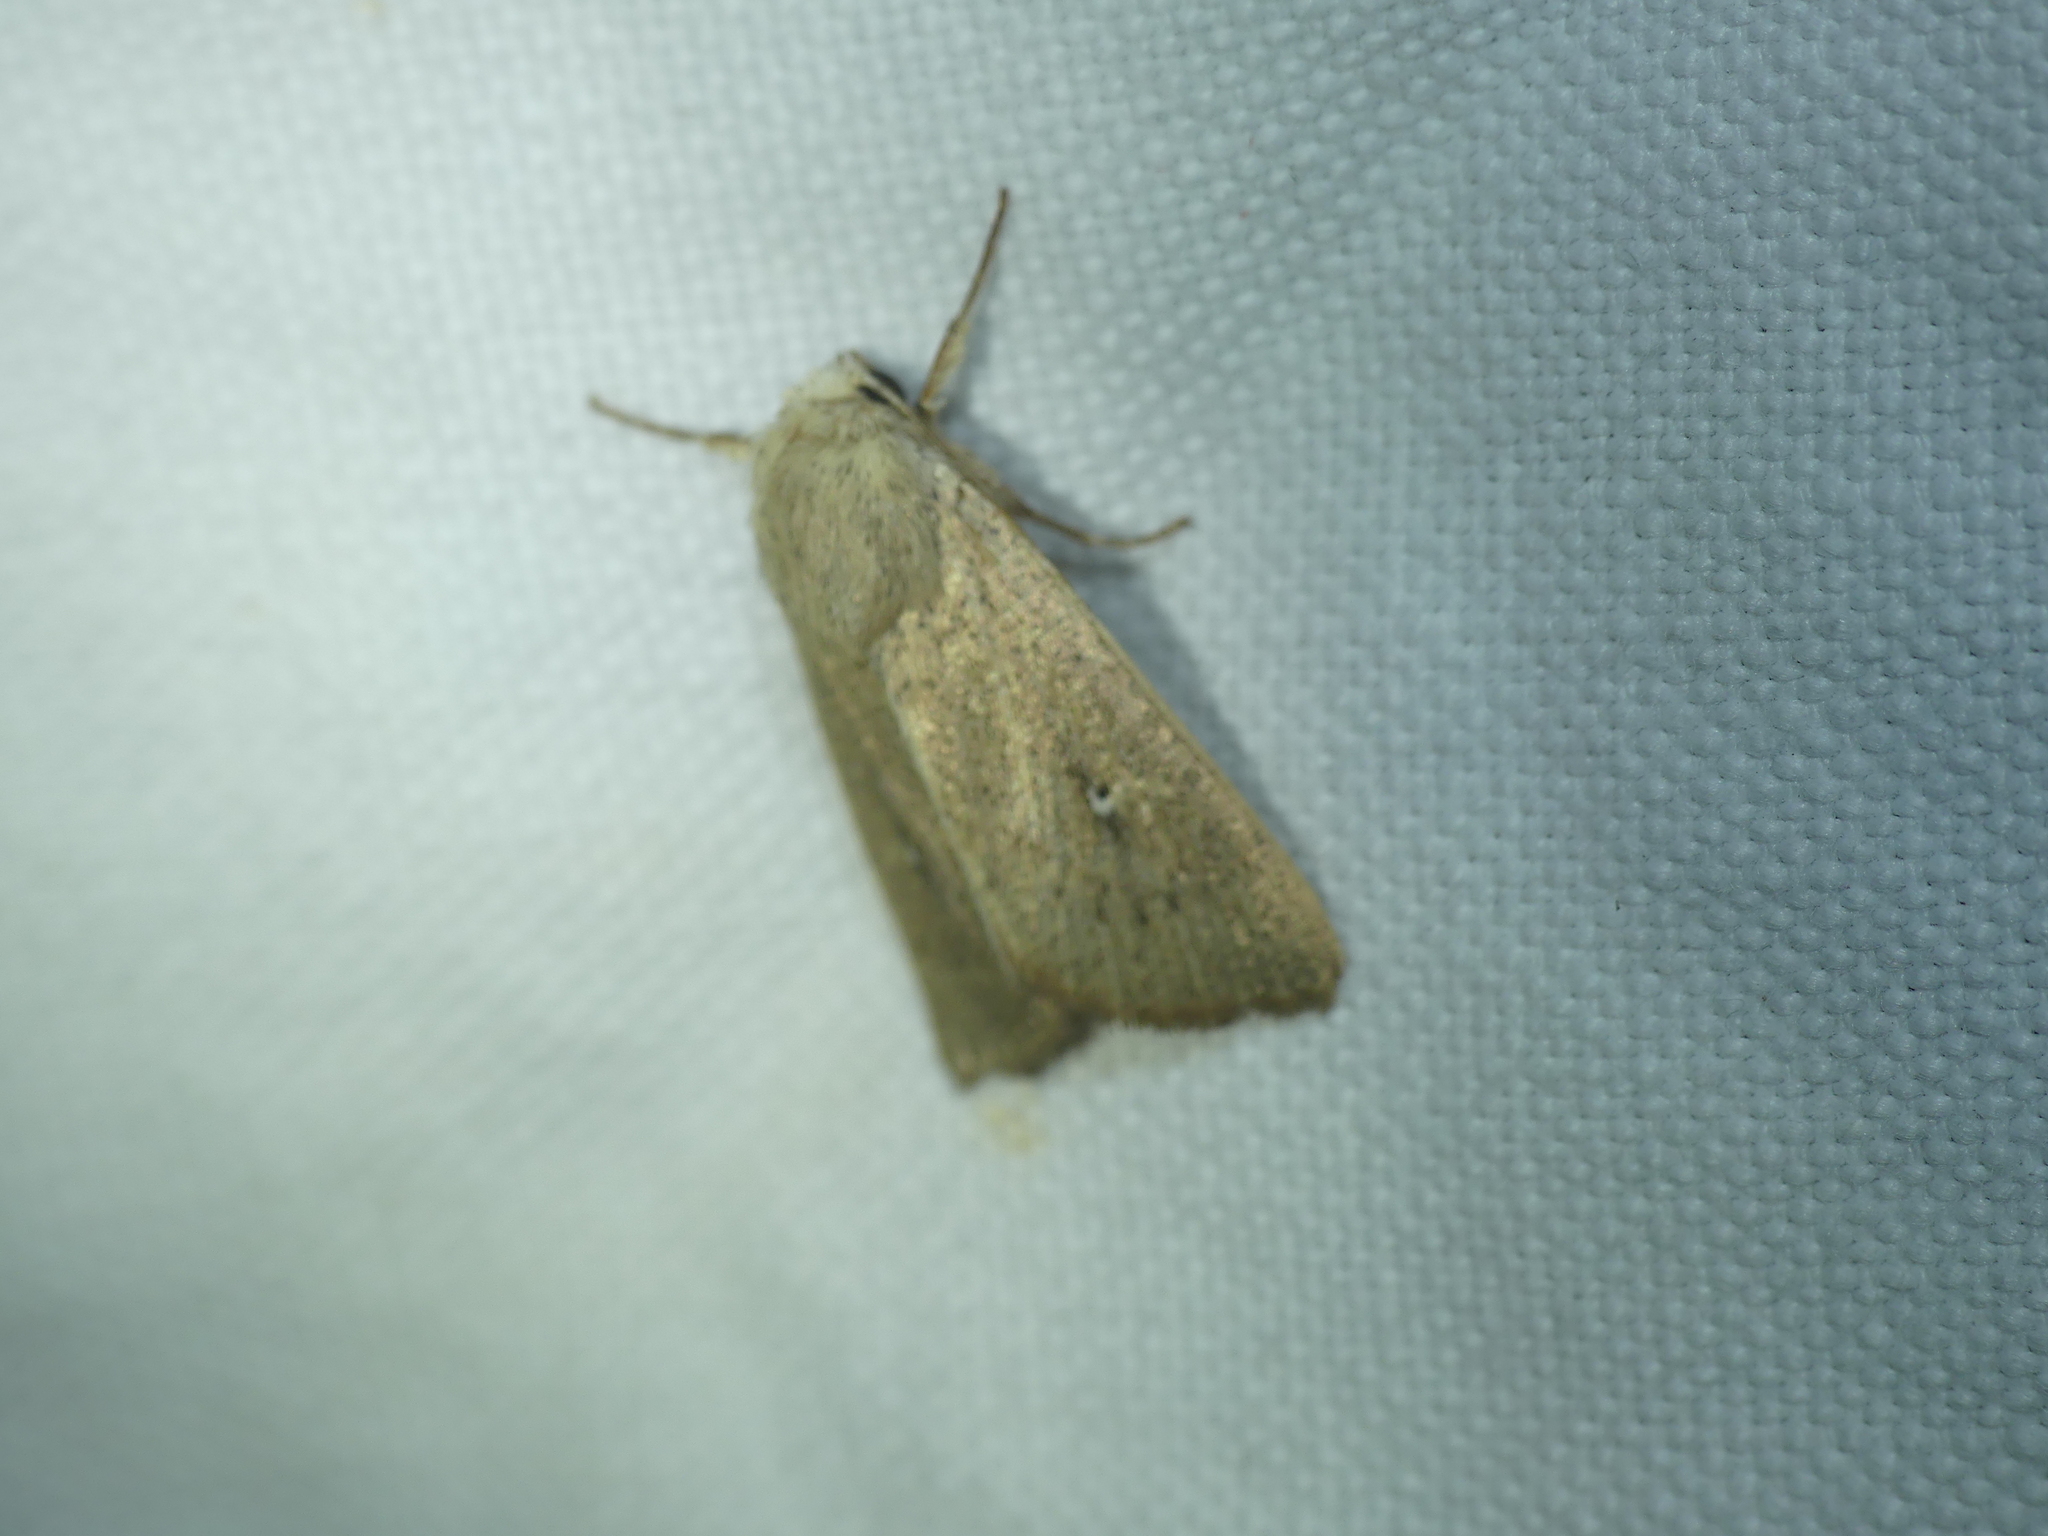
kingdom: Animalia
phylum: Arthropoda
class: Insecta
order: Lepidoptera
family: Noctuidae
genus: Mythimna
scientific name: Mythimna sicula
